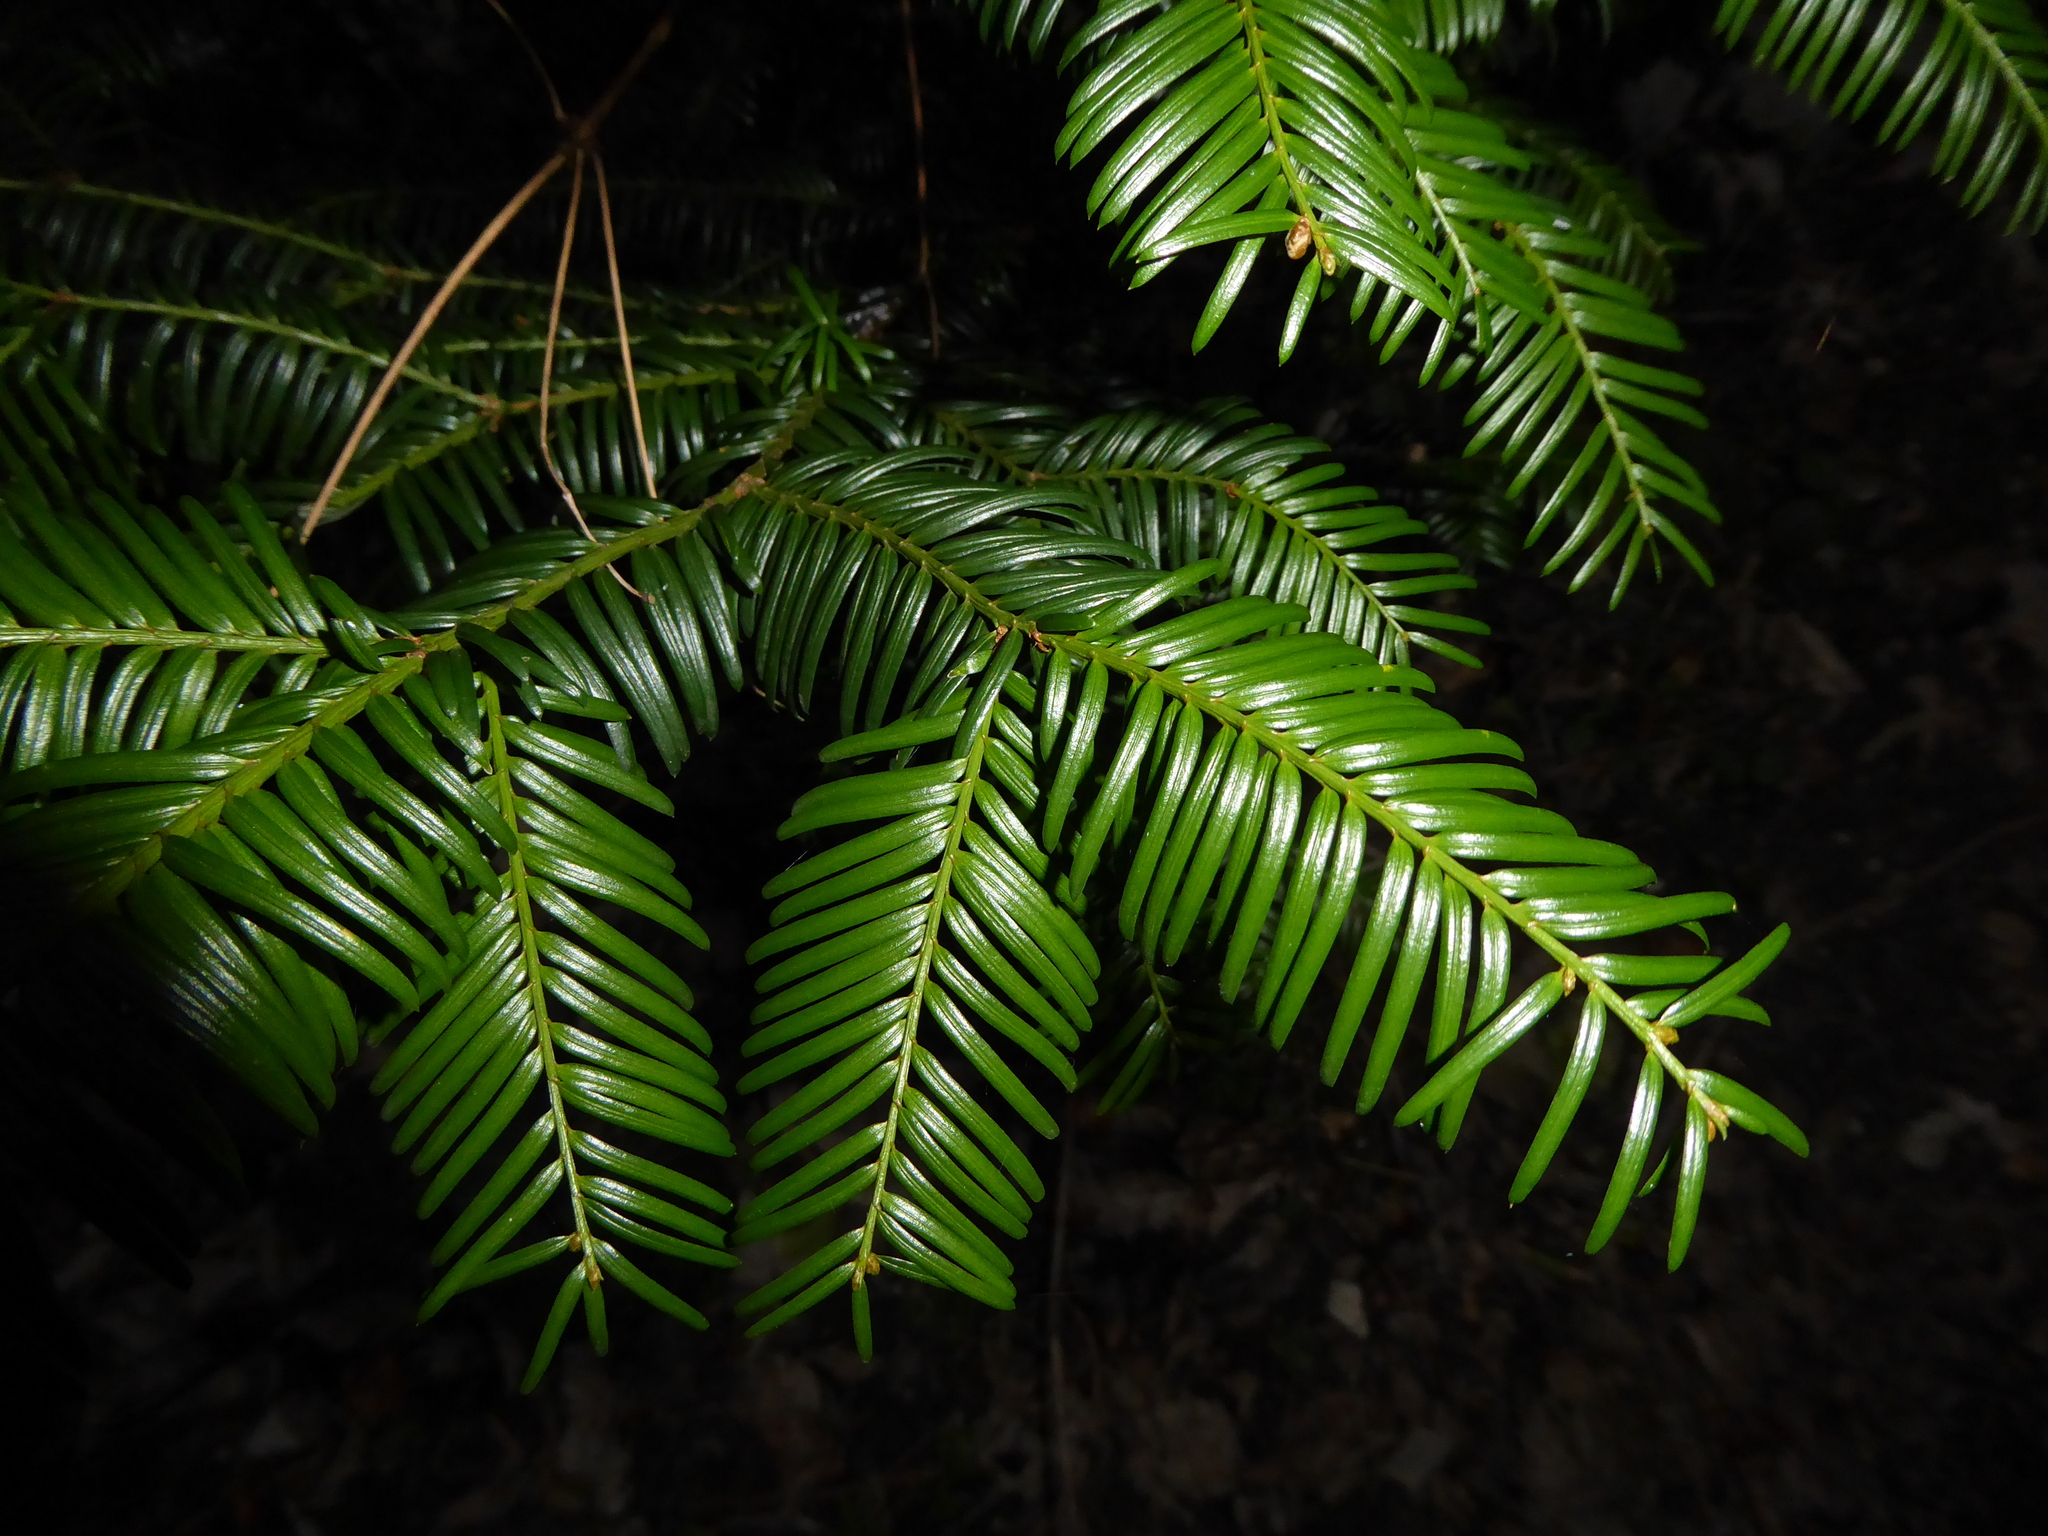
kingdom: Plantae
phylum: Tracheophyta
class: Pinopsida
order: Pinales
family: Taxaceae
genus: Taxus
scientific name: Taxus baccata
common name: Yew
